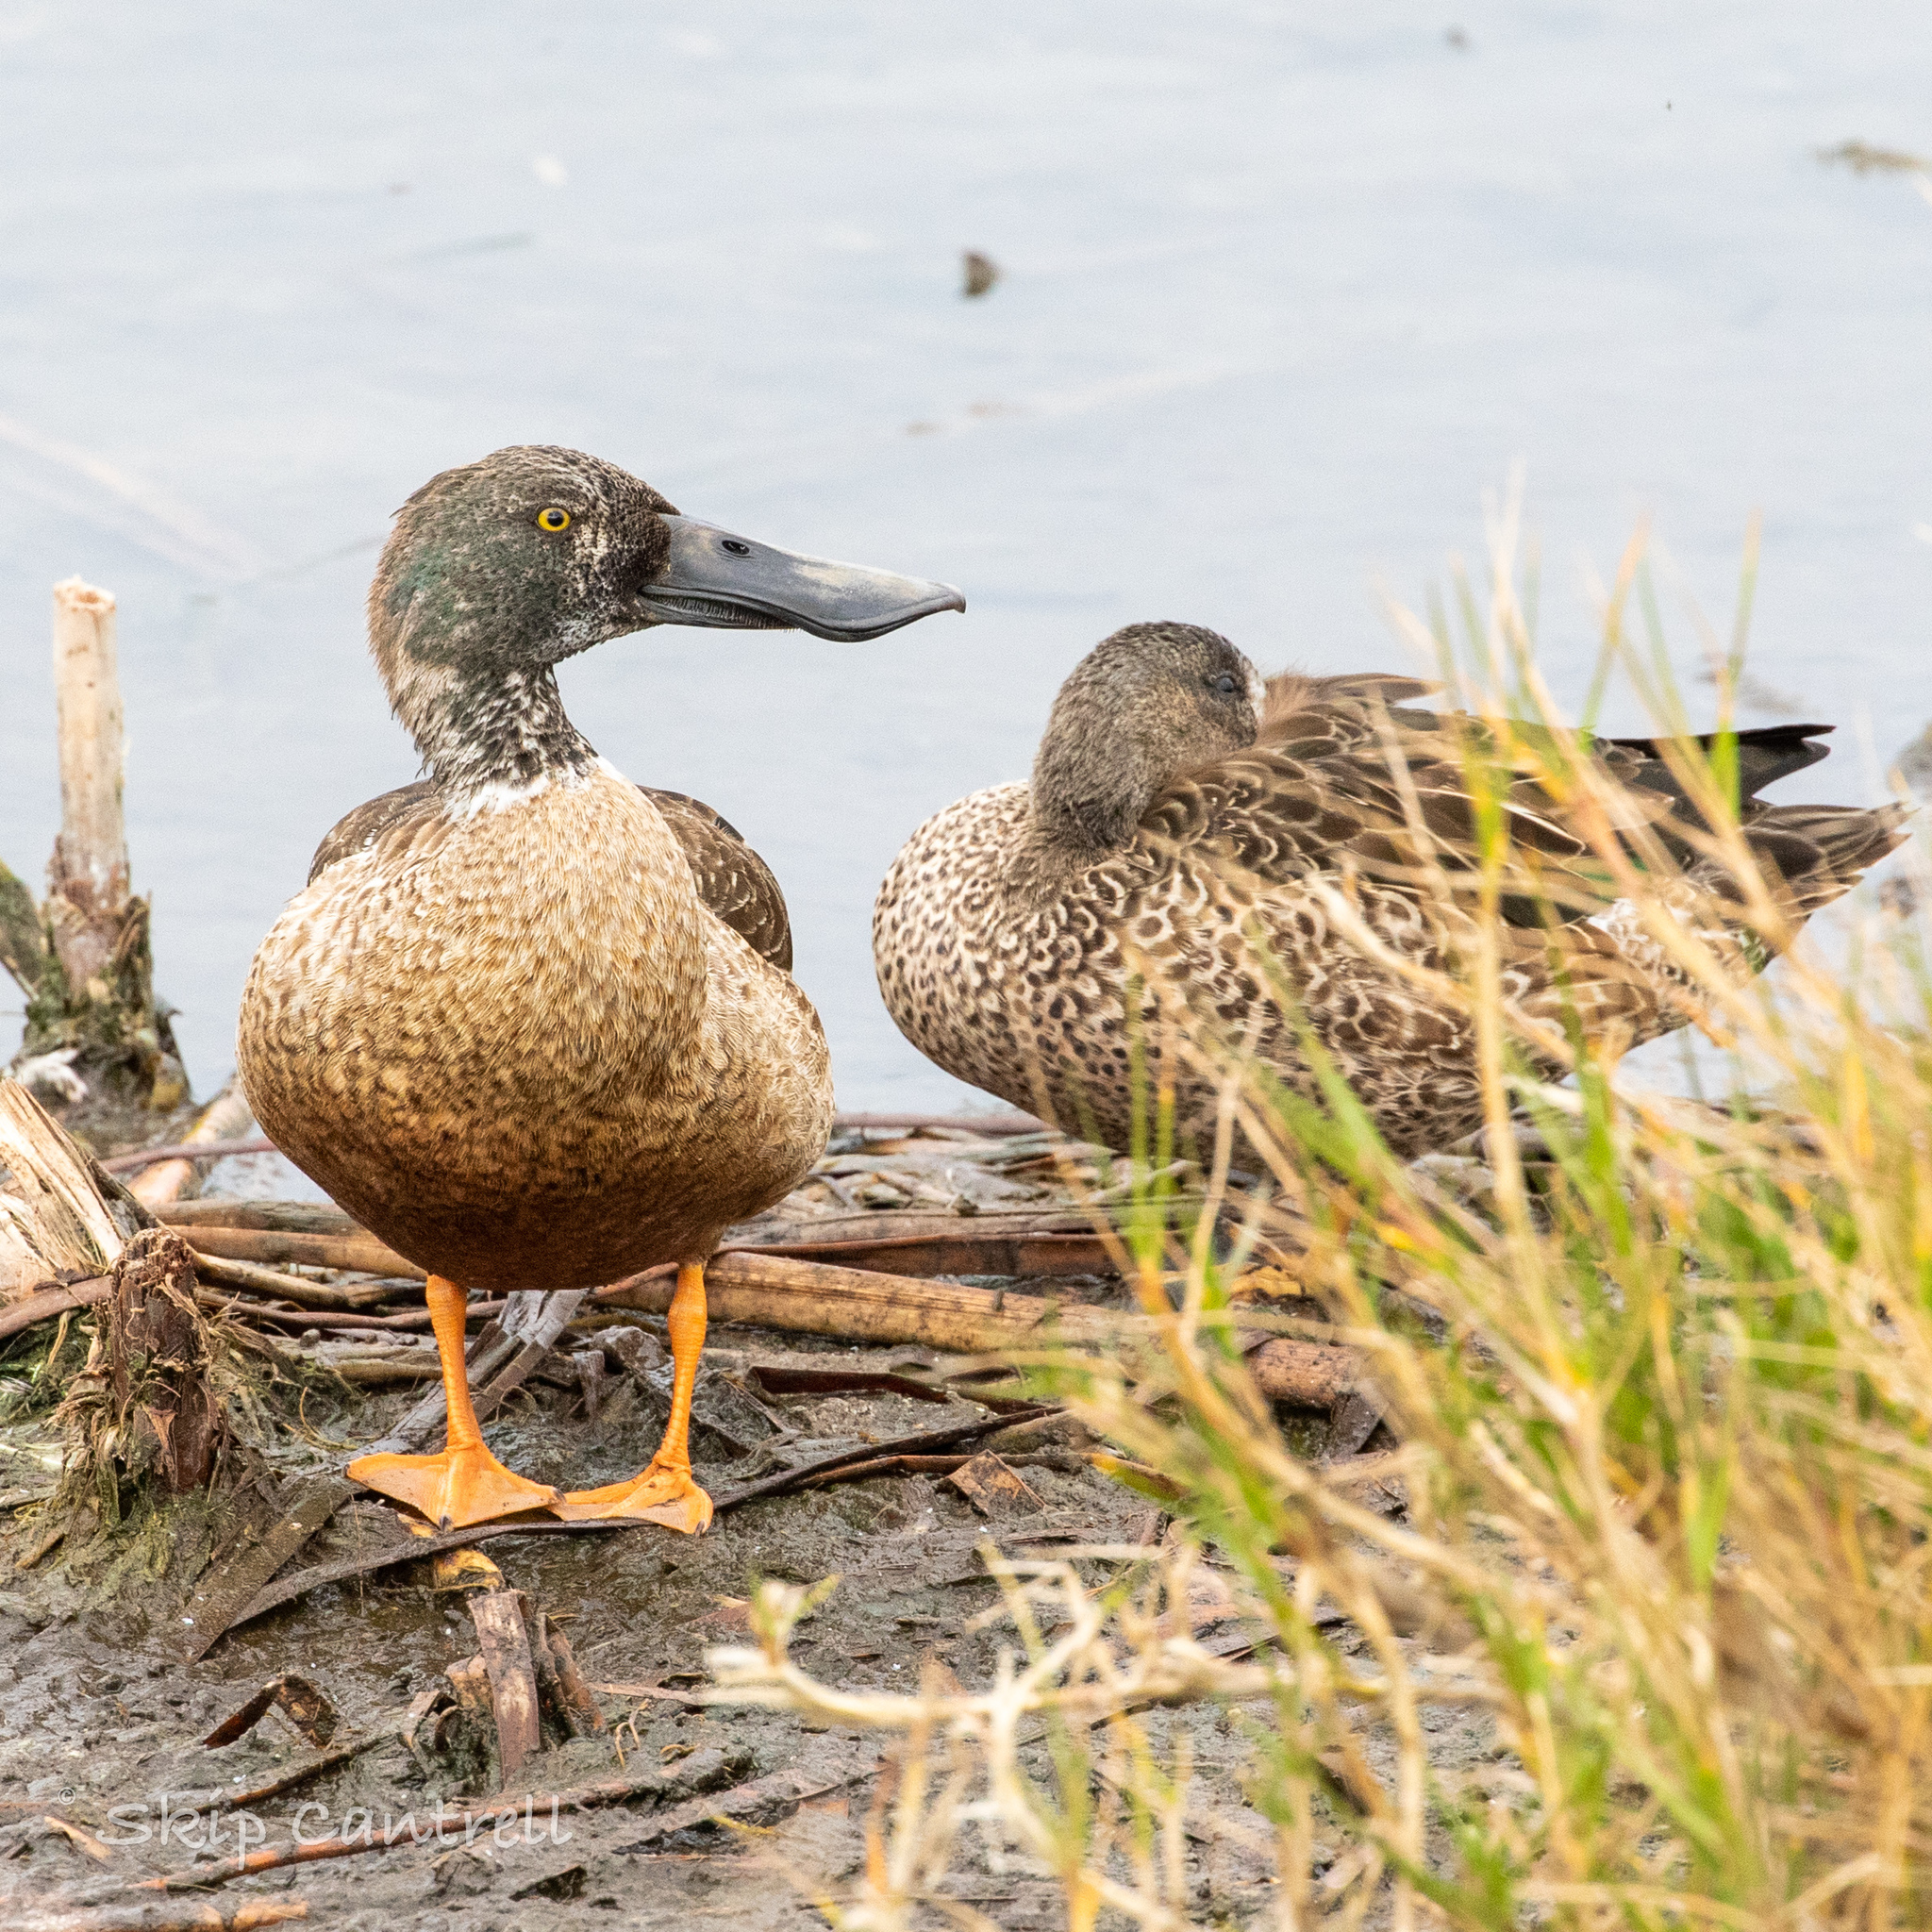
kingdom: Animalia
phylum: Chordata
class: Aves
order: Anseriformes
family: Anatidae
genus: Spatula
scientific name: Spatula clypeata
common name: Northern shoveler
